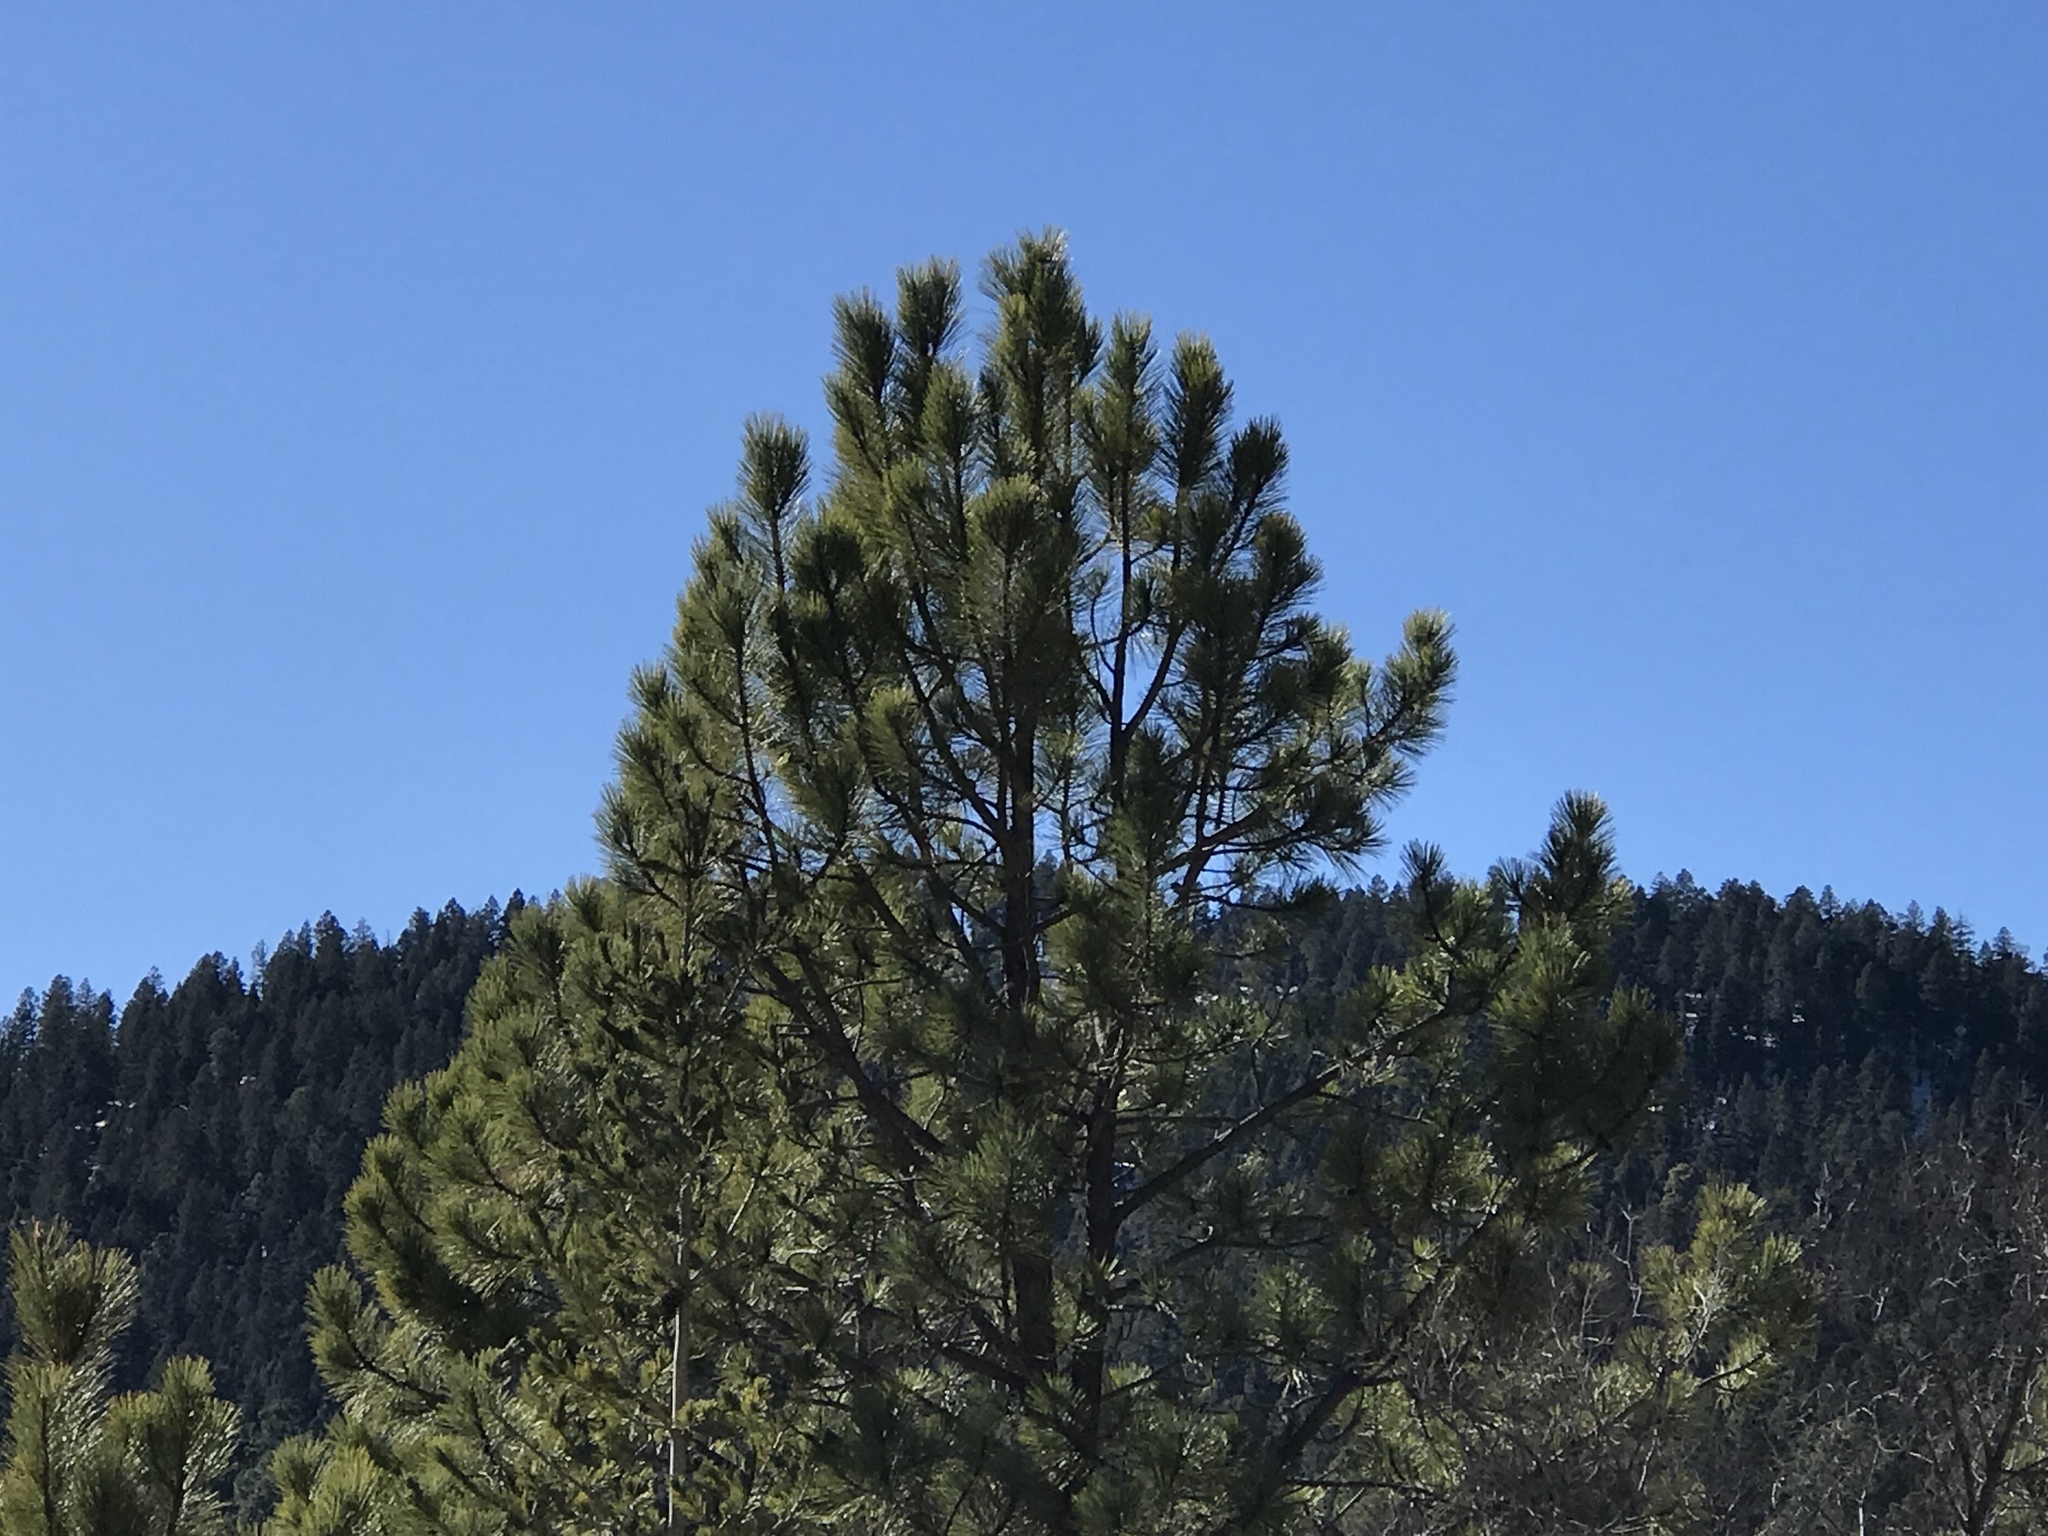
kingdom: Plantae
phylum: Tracheophyta
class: Pinopsida
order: Pinales
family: Pinaceae
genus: Pinus
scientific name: Pinus ponderosa
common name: Western yellow-pine
